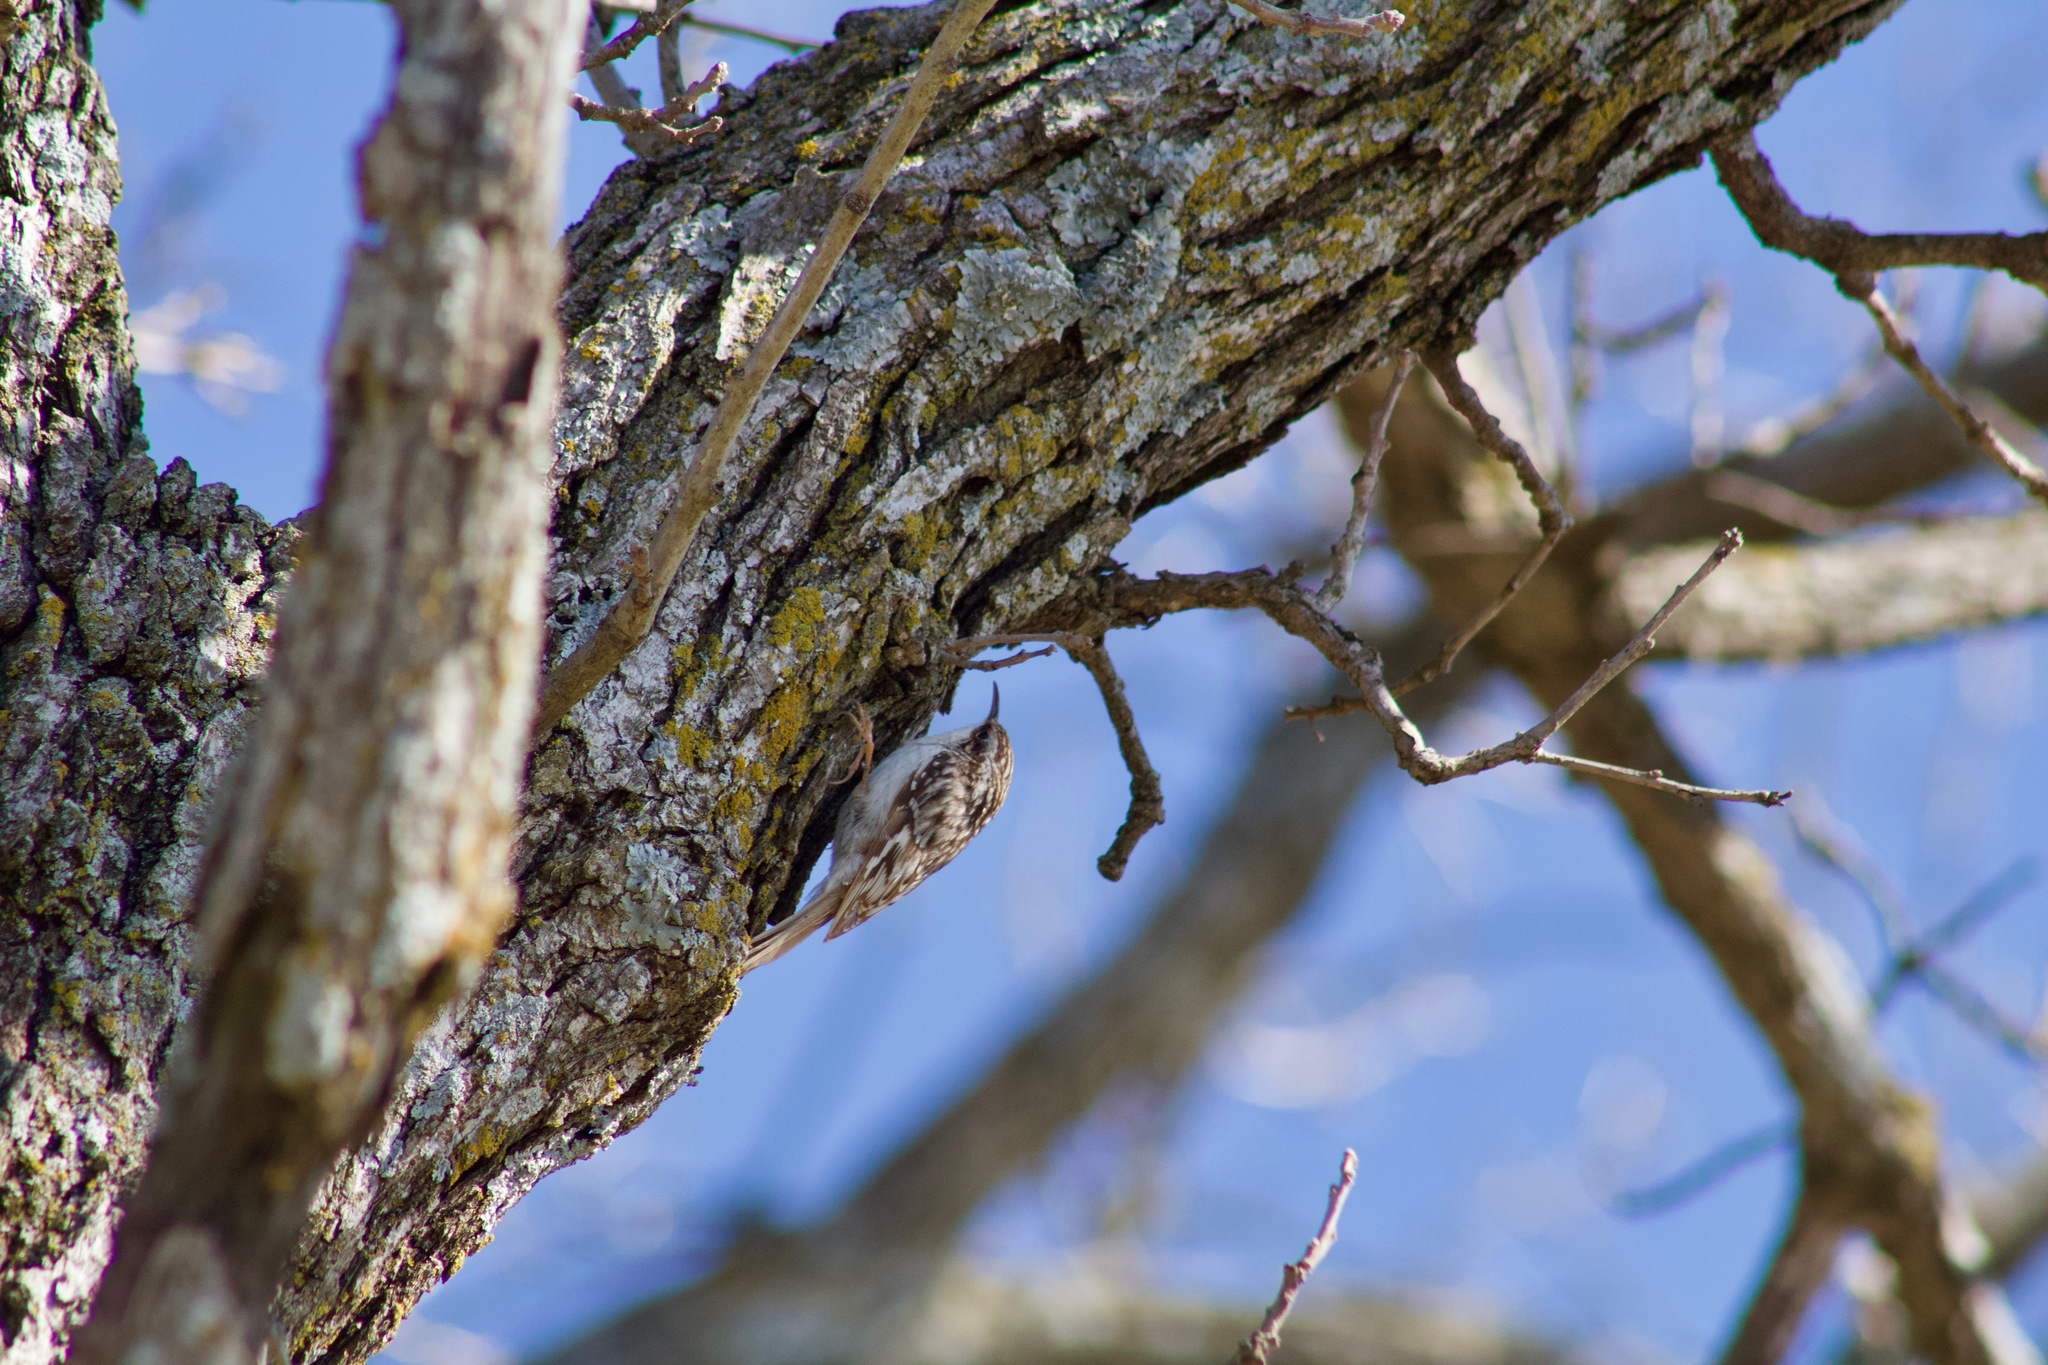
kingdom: Animalia
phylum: Chordata
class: Aves
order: Passeriformes
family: Certhiidae
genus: Certhia
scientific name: Certhia americana
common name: Brown creeper
